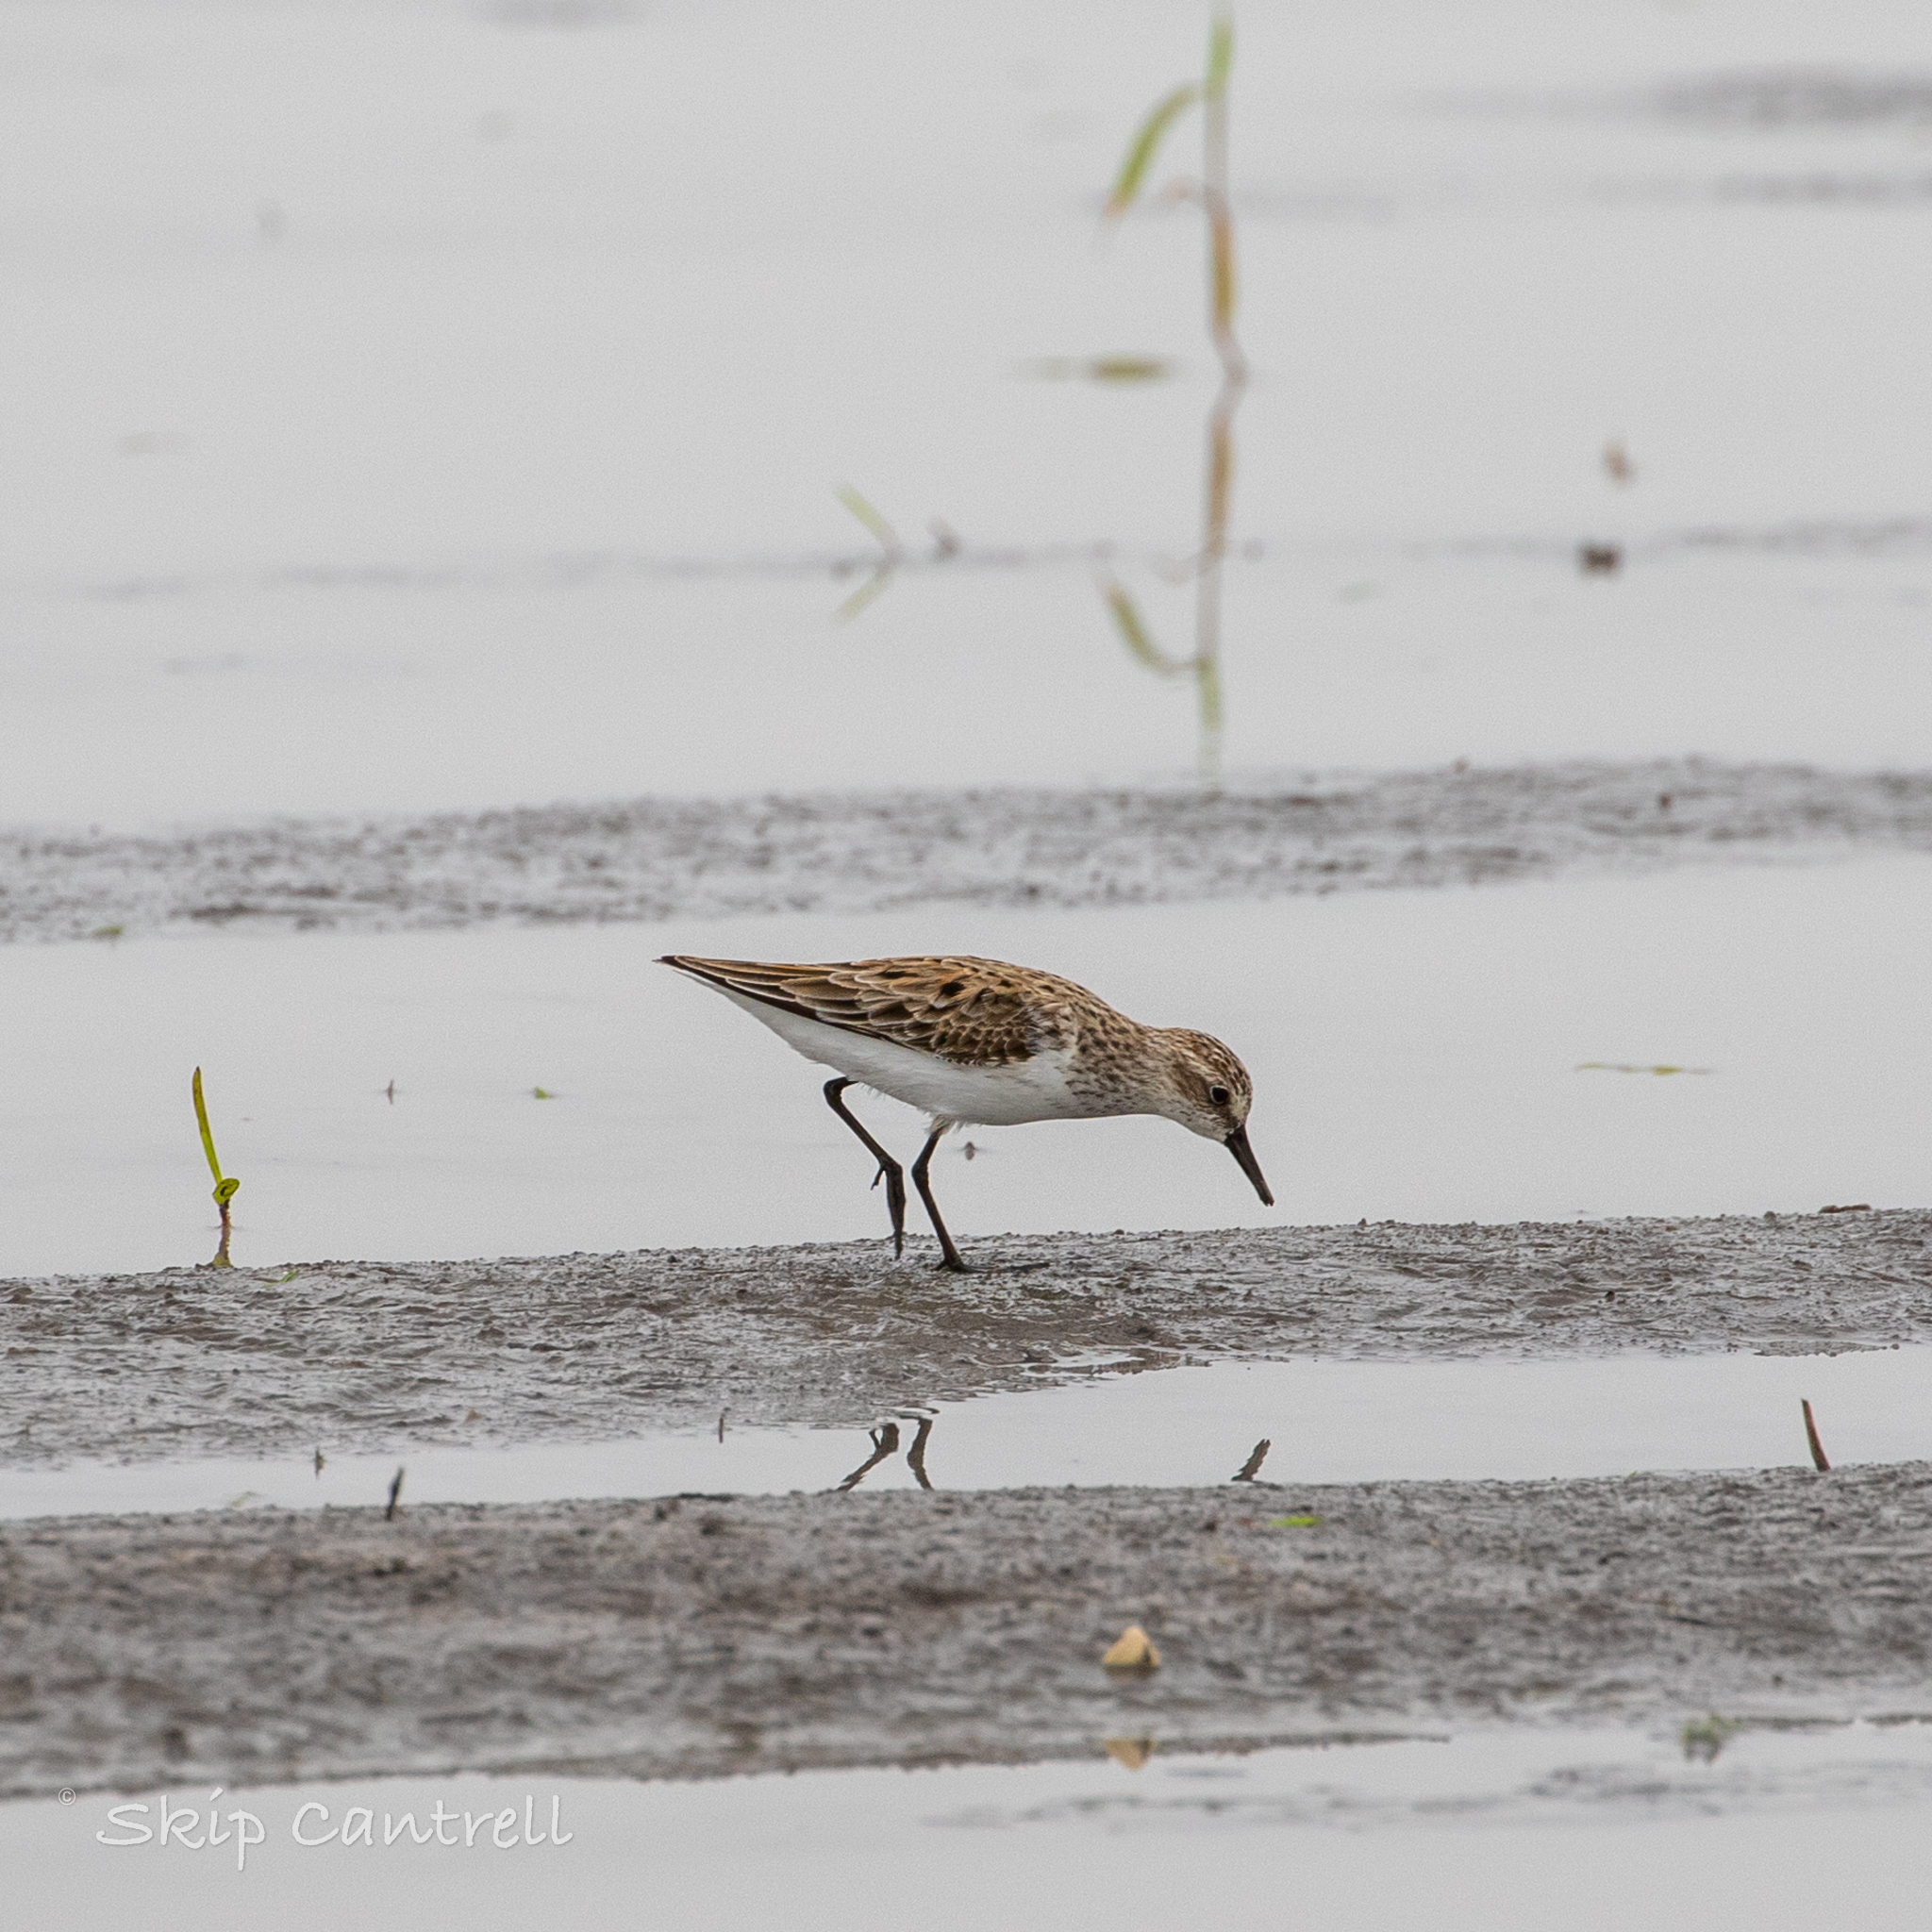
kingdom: Animalia
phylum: Chordata
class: Aves
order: Charadriiformes
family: Scolopacidae
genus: Calidris
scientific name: Calidris pusilla
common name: Semipalmated sandpiper
